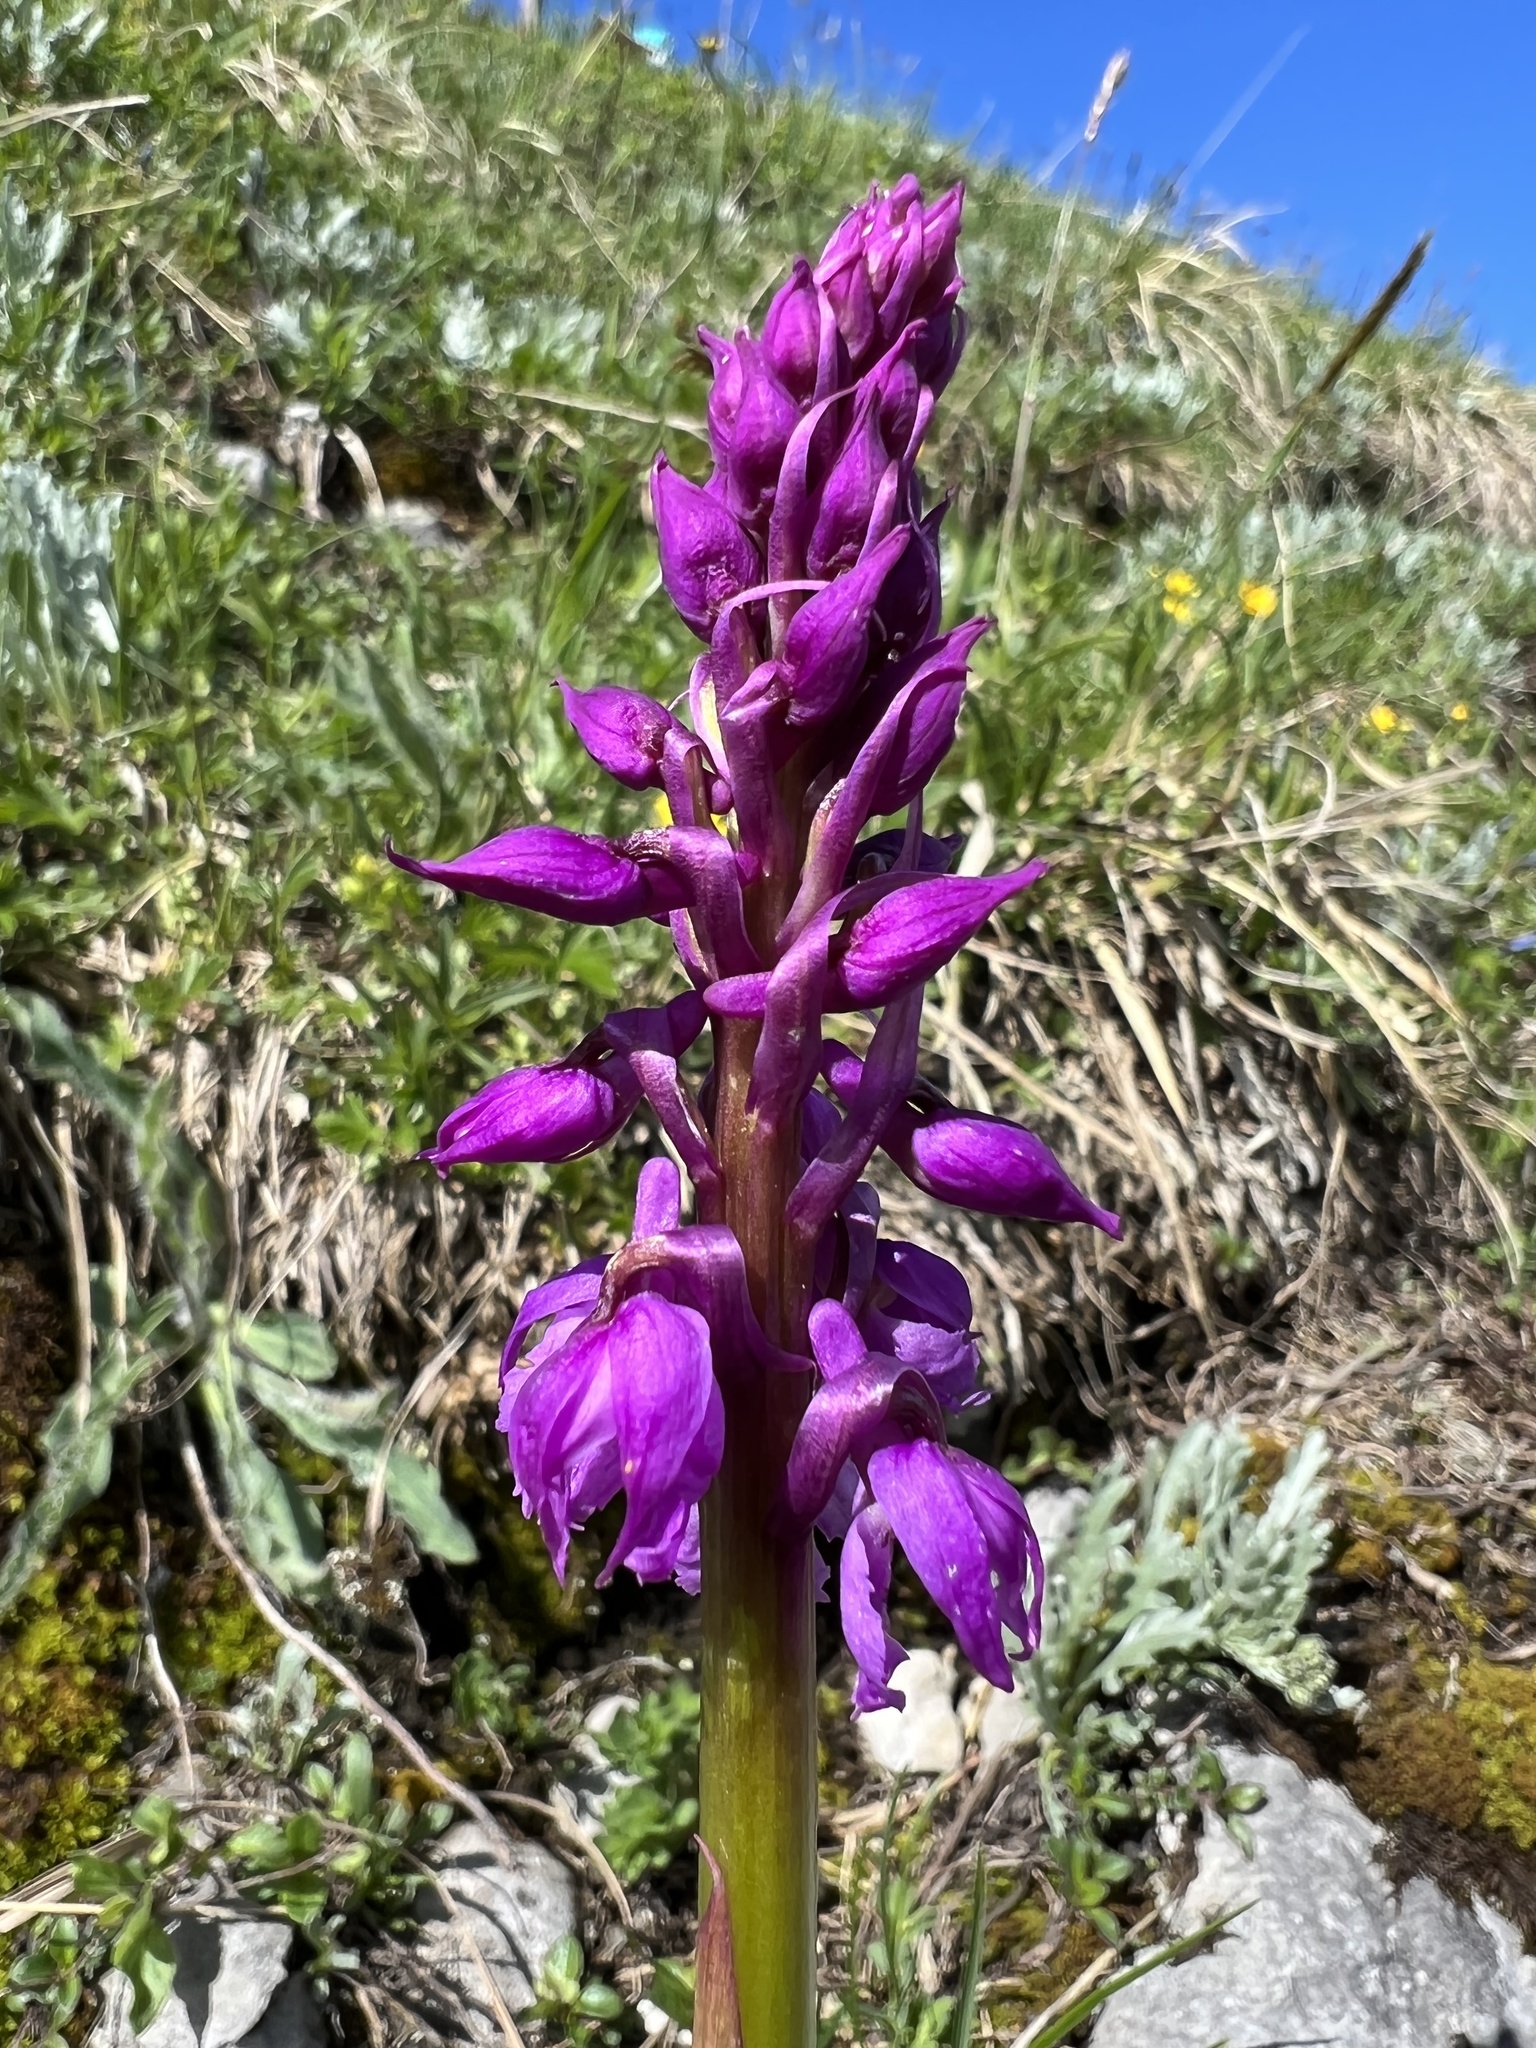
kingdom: Plantae
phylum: Tracheophyta
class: Liliopsida
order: Asparagales
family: Orchidaceae
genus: Orchis
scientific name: Orchis mascula
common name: Early-purple orchid
